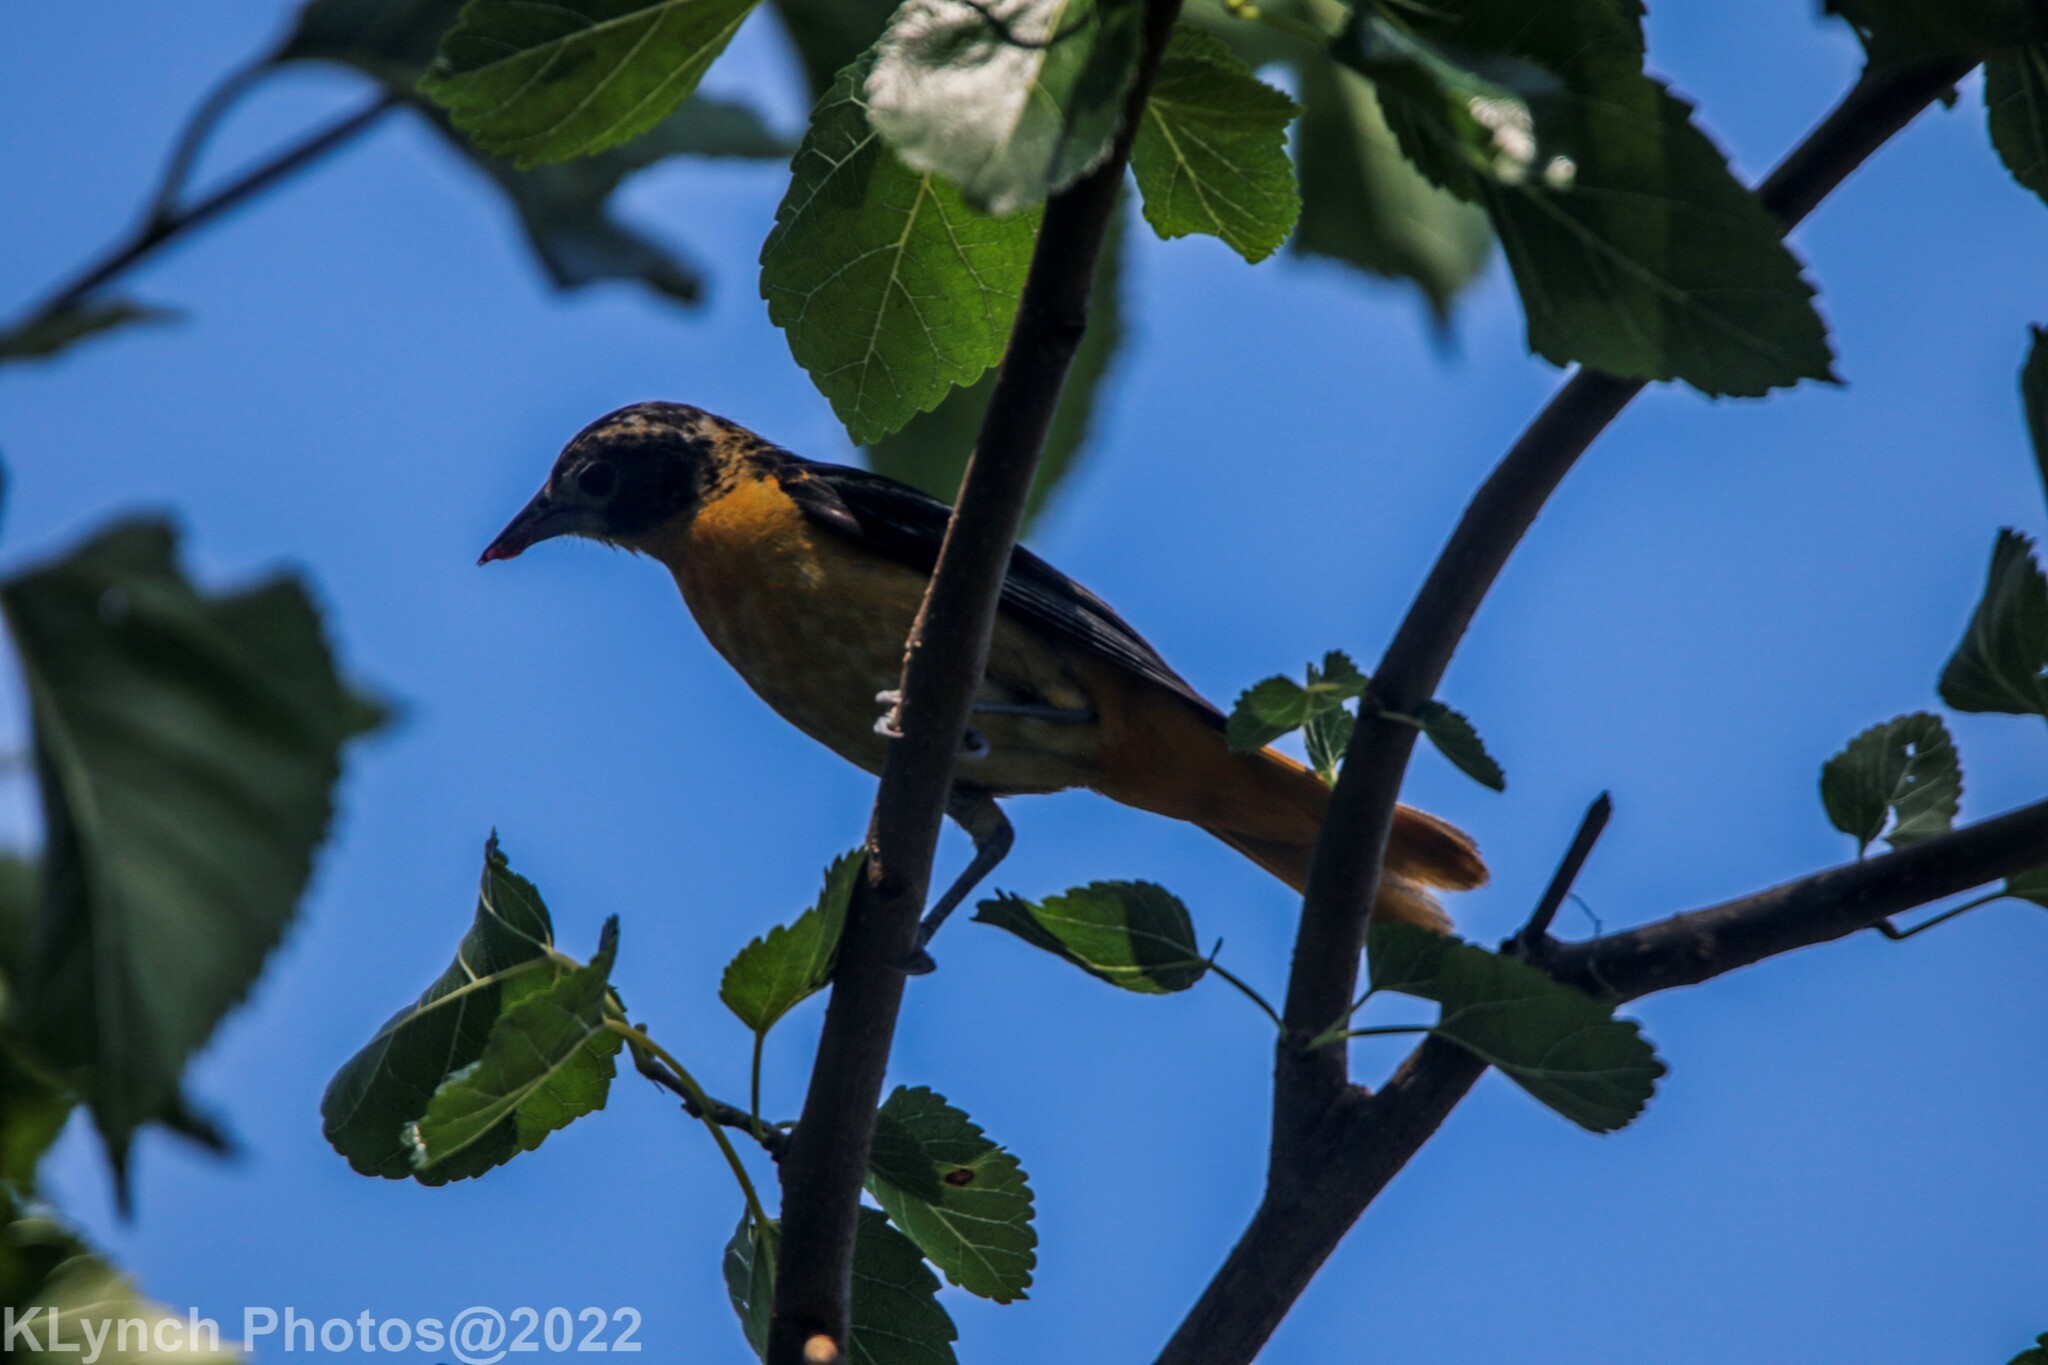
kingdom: Animalia
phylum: Chordata
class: Aves
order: Passeriformes
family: Icteridae
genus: Icterus
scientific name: Icterus galbula
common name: Baltimore oriole
